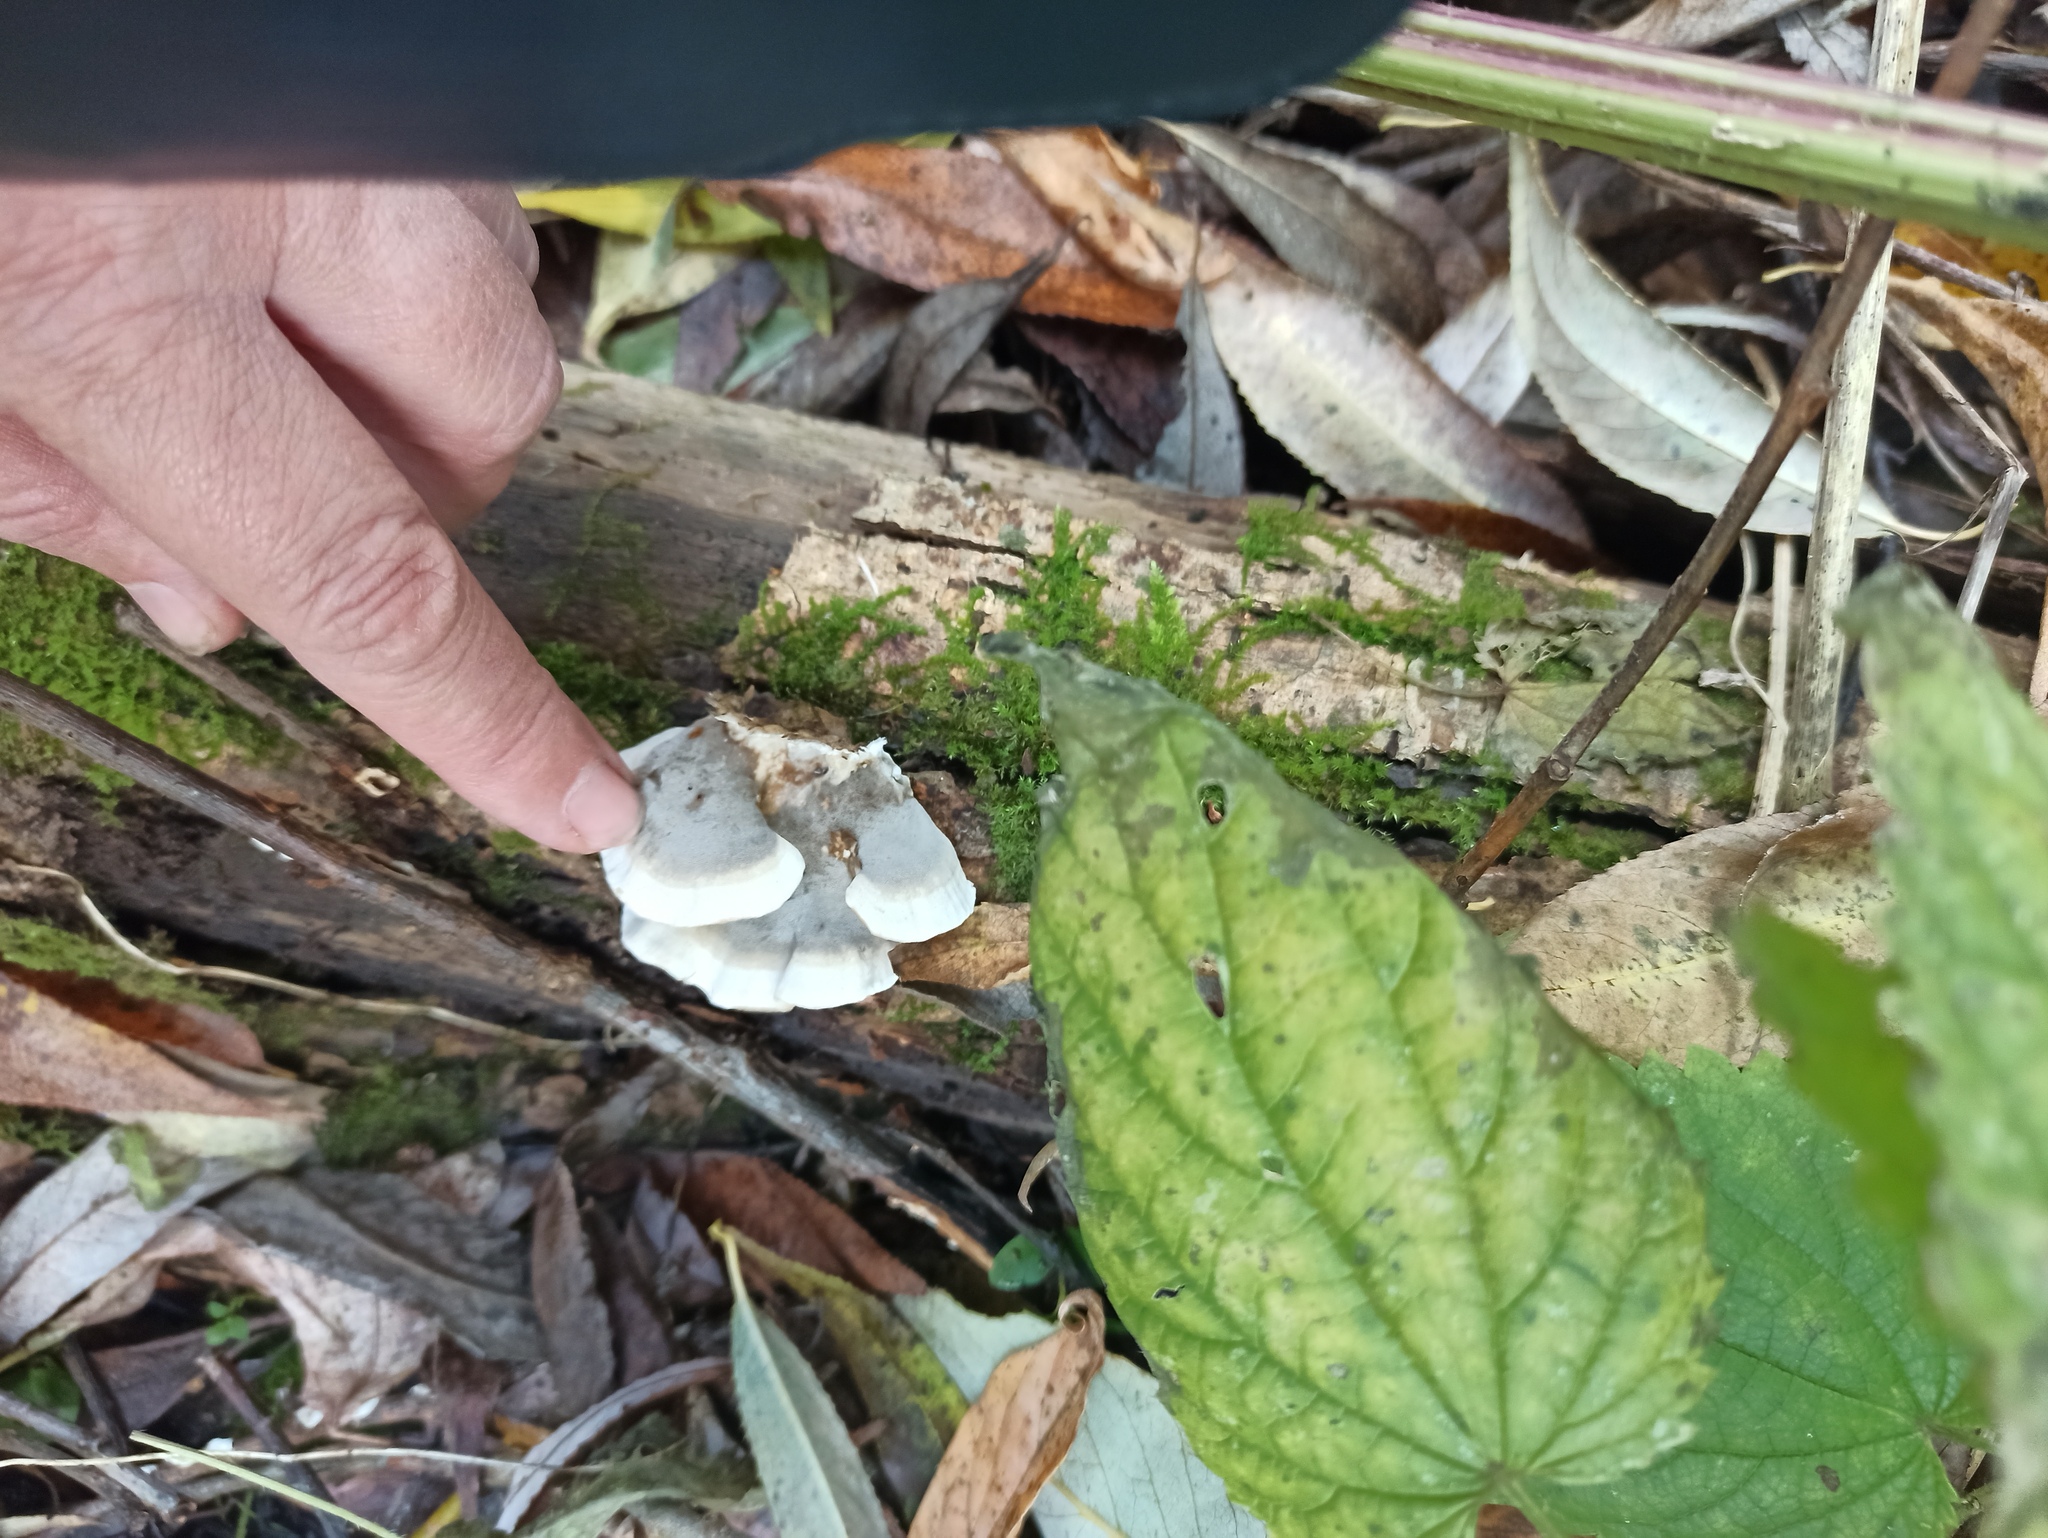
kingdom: Fungi
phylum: Basidiomycota
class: Agaricomycetes
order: Polyporales
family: Phanerochaetaceae
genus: Bjerkandera
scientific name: Bjerkandera adusta
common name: Smoky bracket
